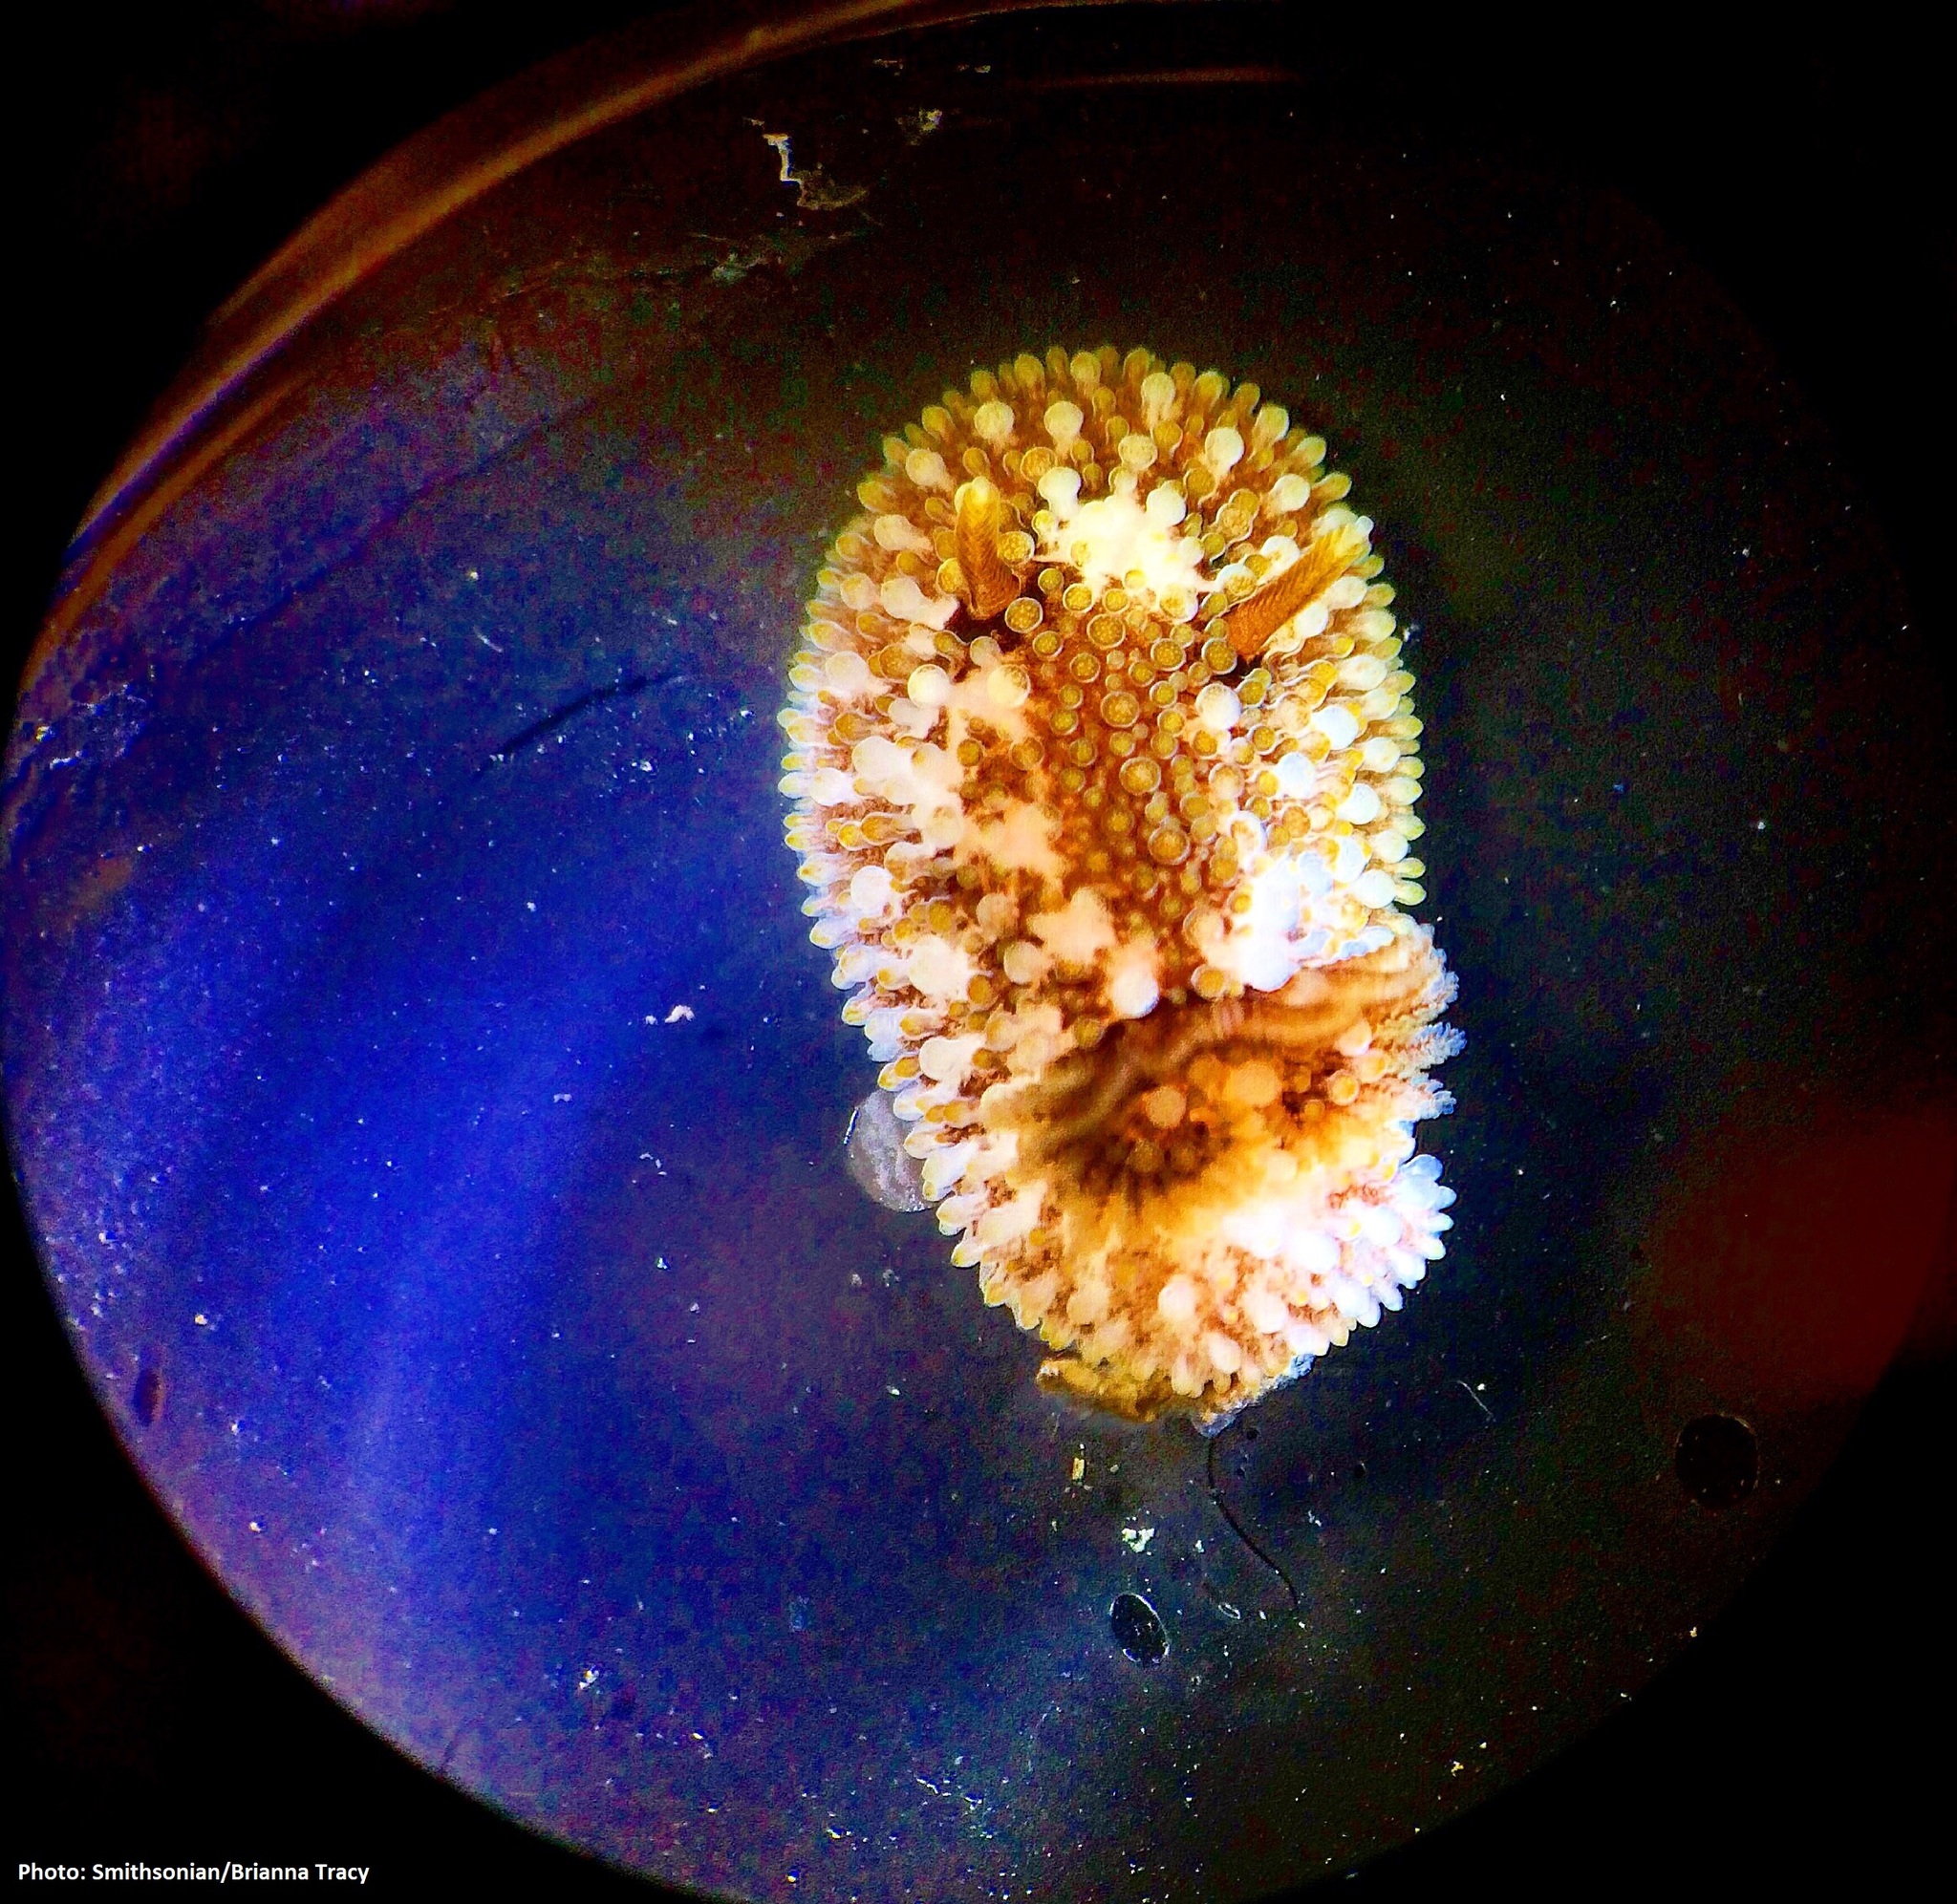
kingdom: Animalia
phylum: Mollusca
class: Gastropoda
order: Nudibranchia
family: Onchidorididae
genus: Onchidoris
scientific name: Onchidoris bilamellata
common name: Barnacle-eating onchidoris
